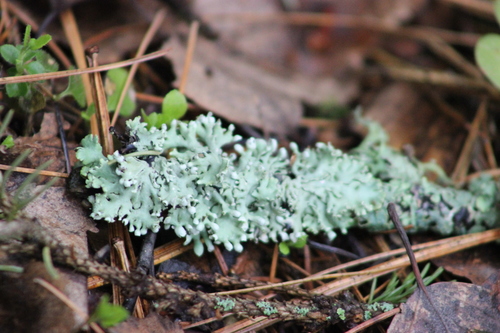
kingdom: Fungi
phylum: Ascomycota
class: Lecanoromycetes
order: Lecanorales
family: Parmeliaceae
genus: Hypogymnia
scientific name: Hypogymnia physodes
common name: Dark crottle
